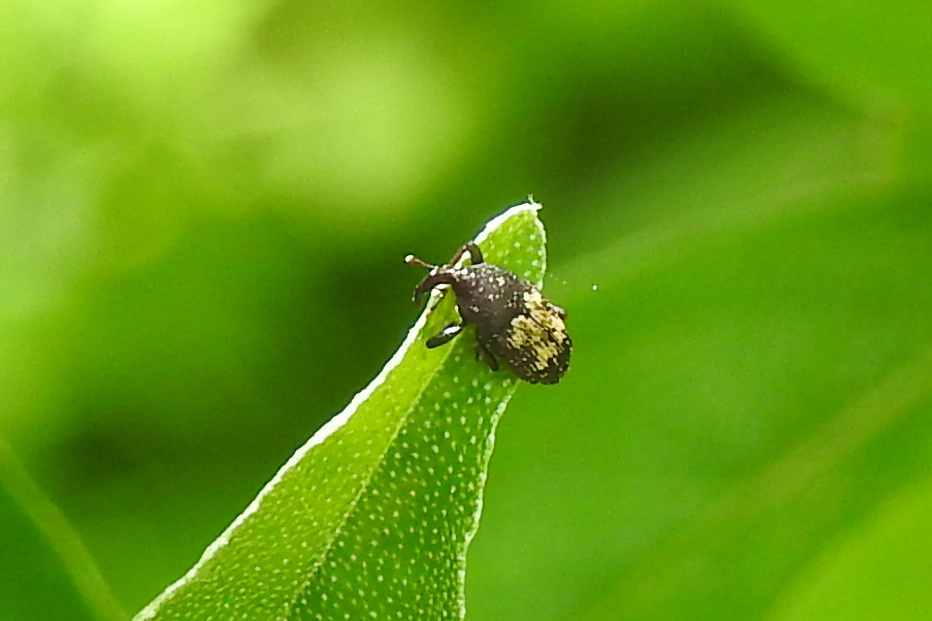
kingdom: Animalia
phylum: Arthropoda
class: Insecta
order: Coleoptera
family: Curculionidae
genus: Glyptobaris
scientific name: Glyptobaris lecontei
